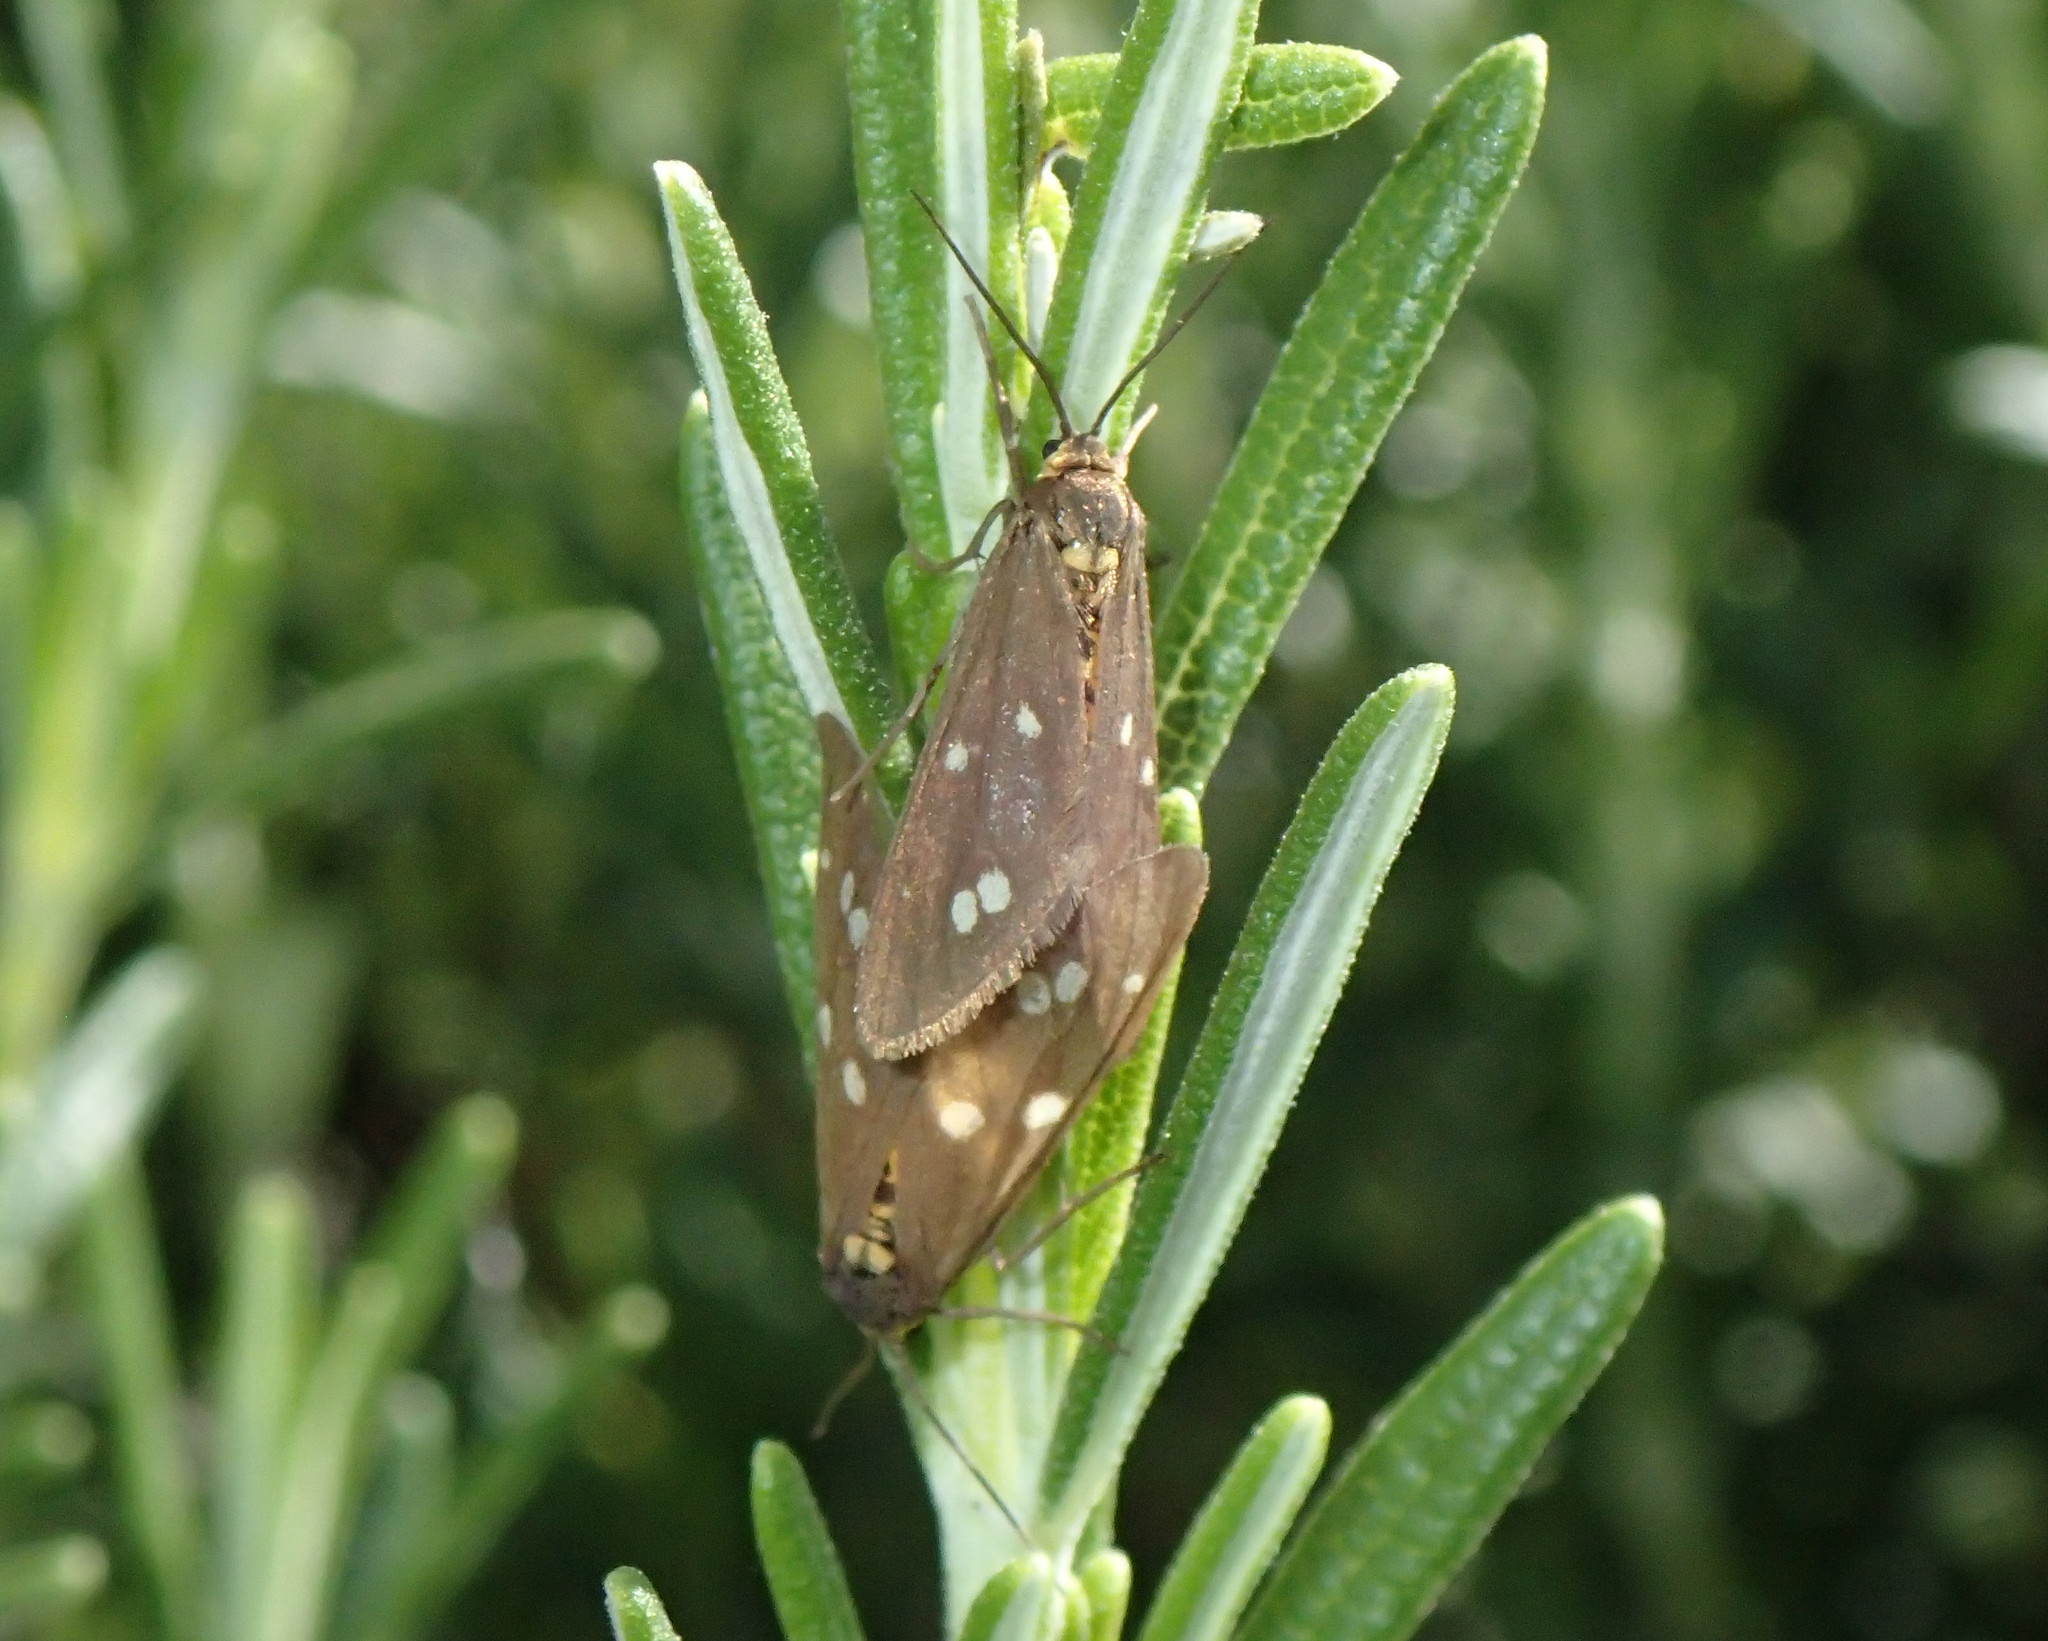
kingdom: Animalia
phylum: Arthropoda
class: Insecta
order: Lepidoptera
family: Erebidae
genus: Dysauxes
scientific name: Dysauxes punctata
